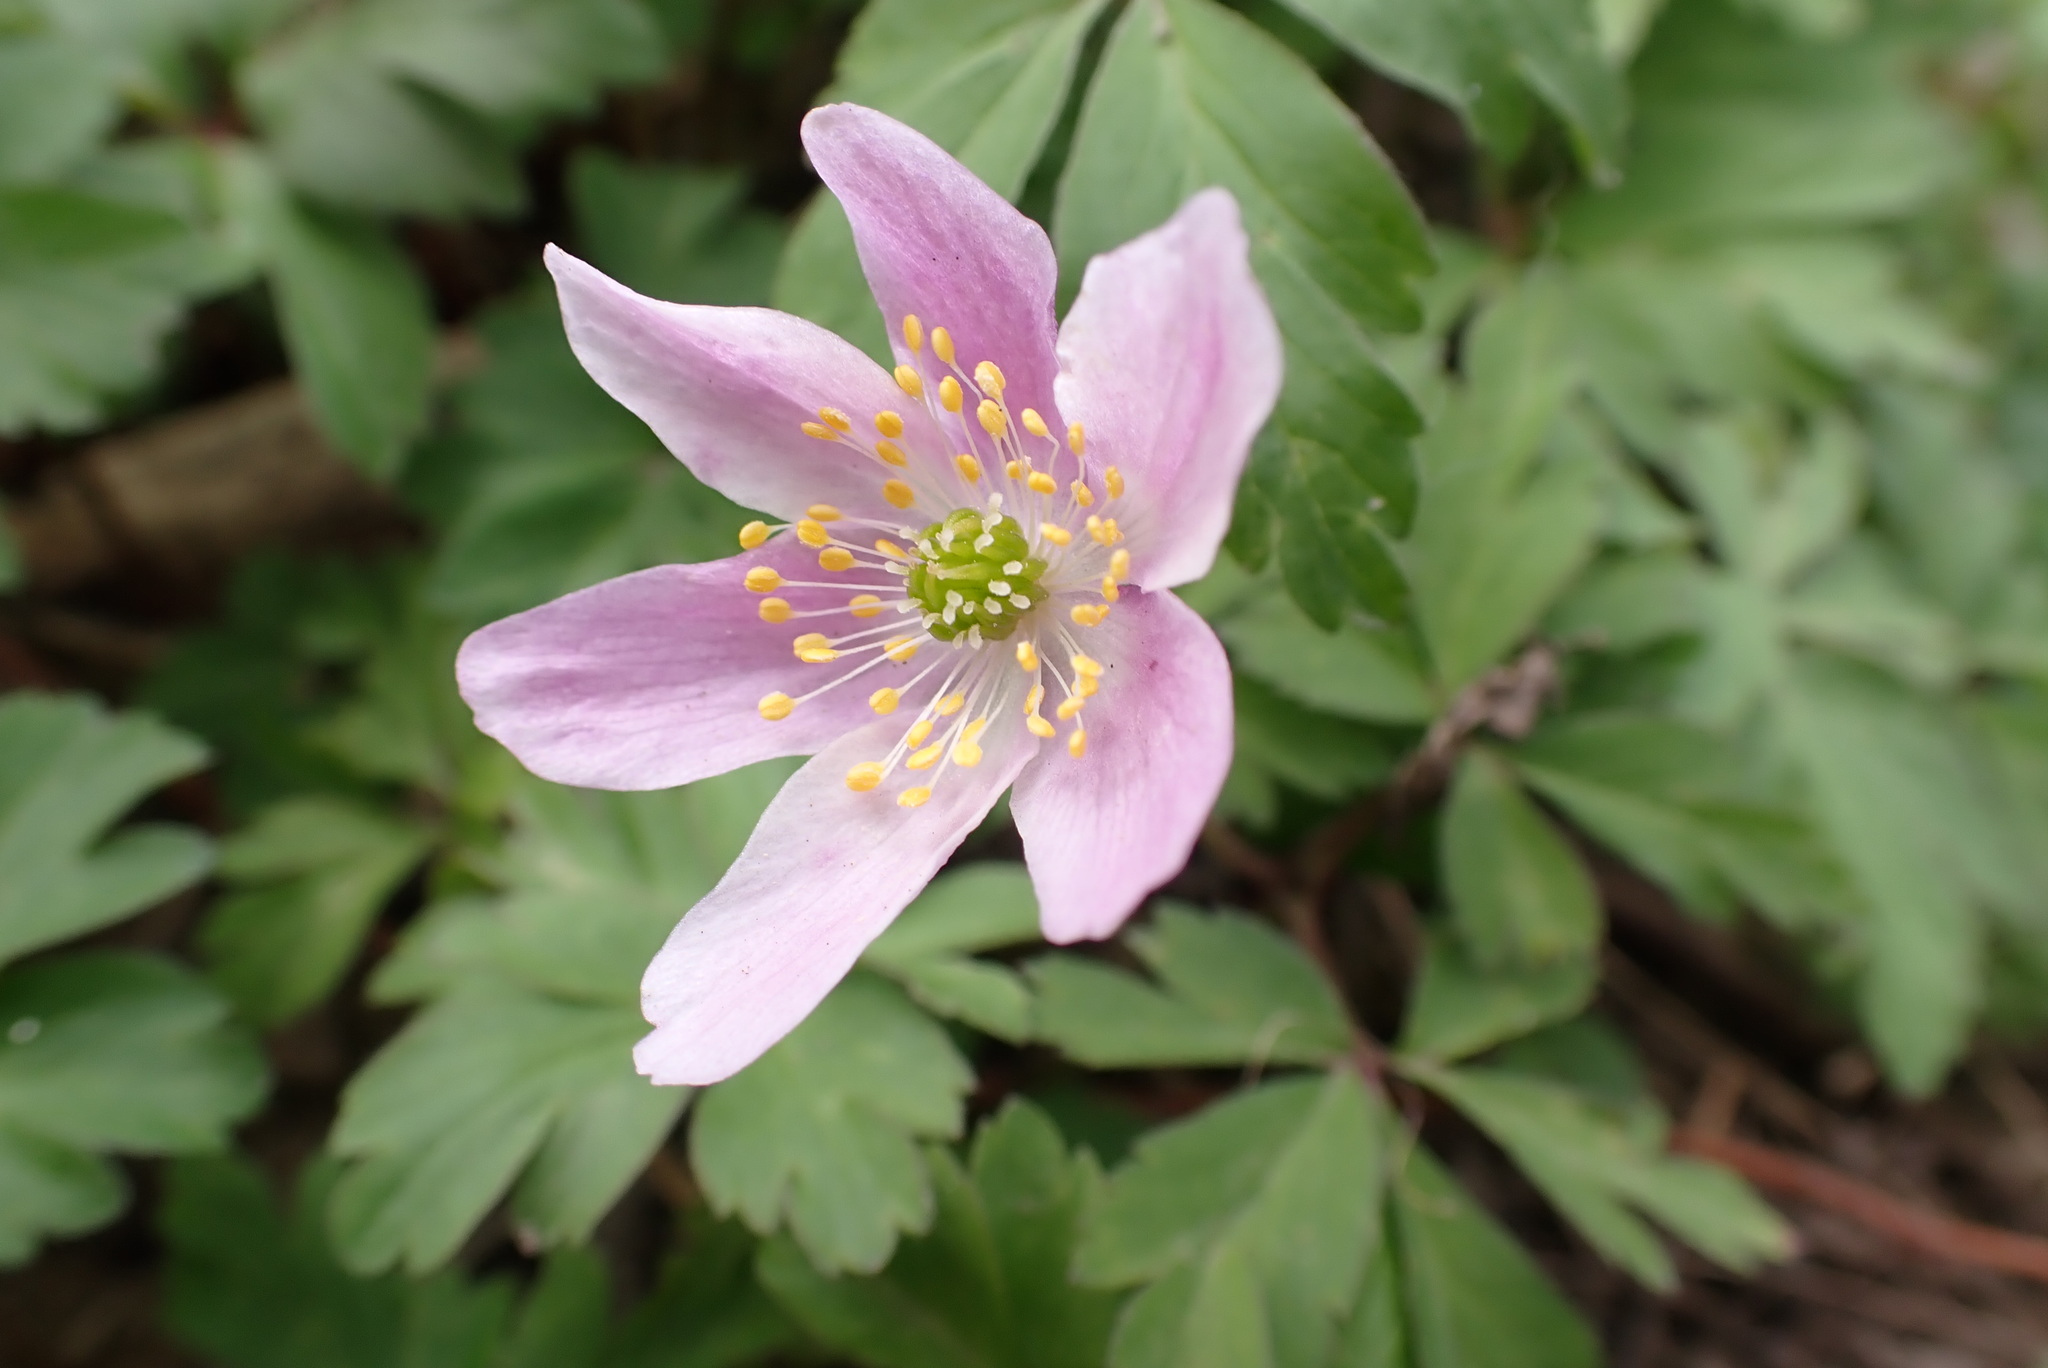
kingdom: Plantae
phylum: Tracheophyta
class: Magnoliopsida
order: Ranunculales
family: Ranunculaceae
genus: Anemone
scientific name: Anemone nemorosa
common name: Wood anemone
